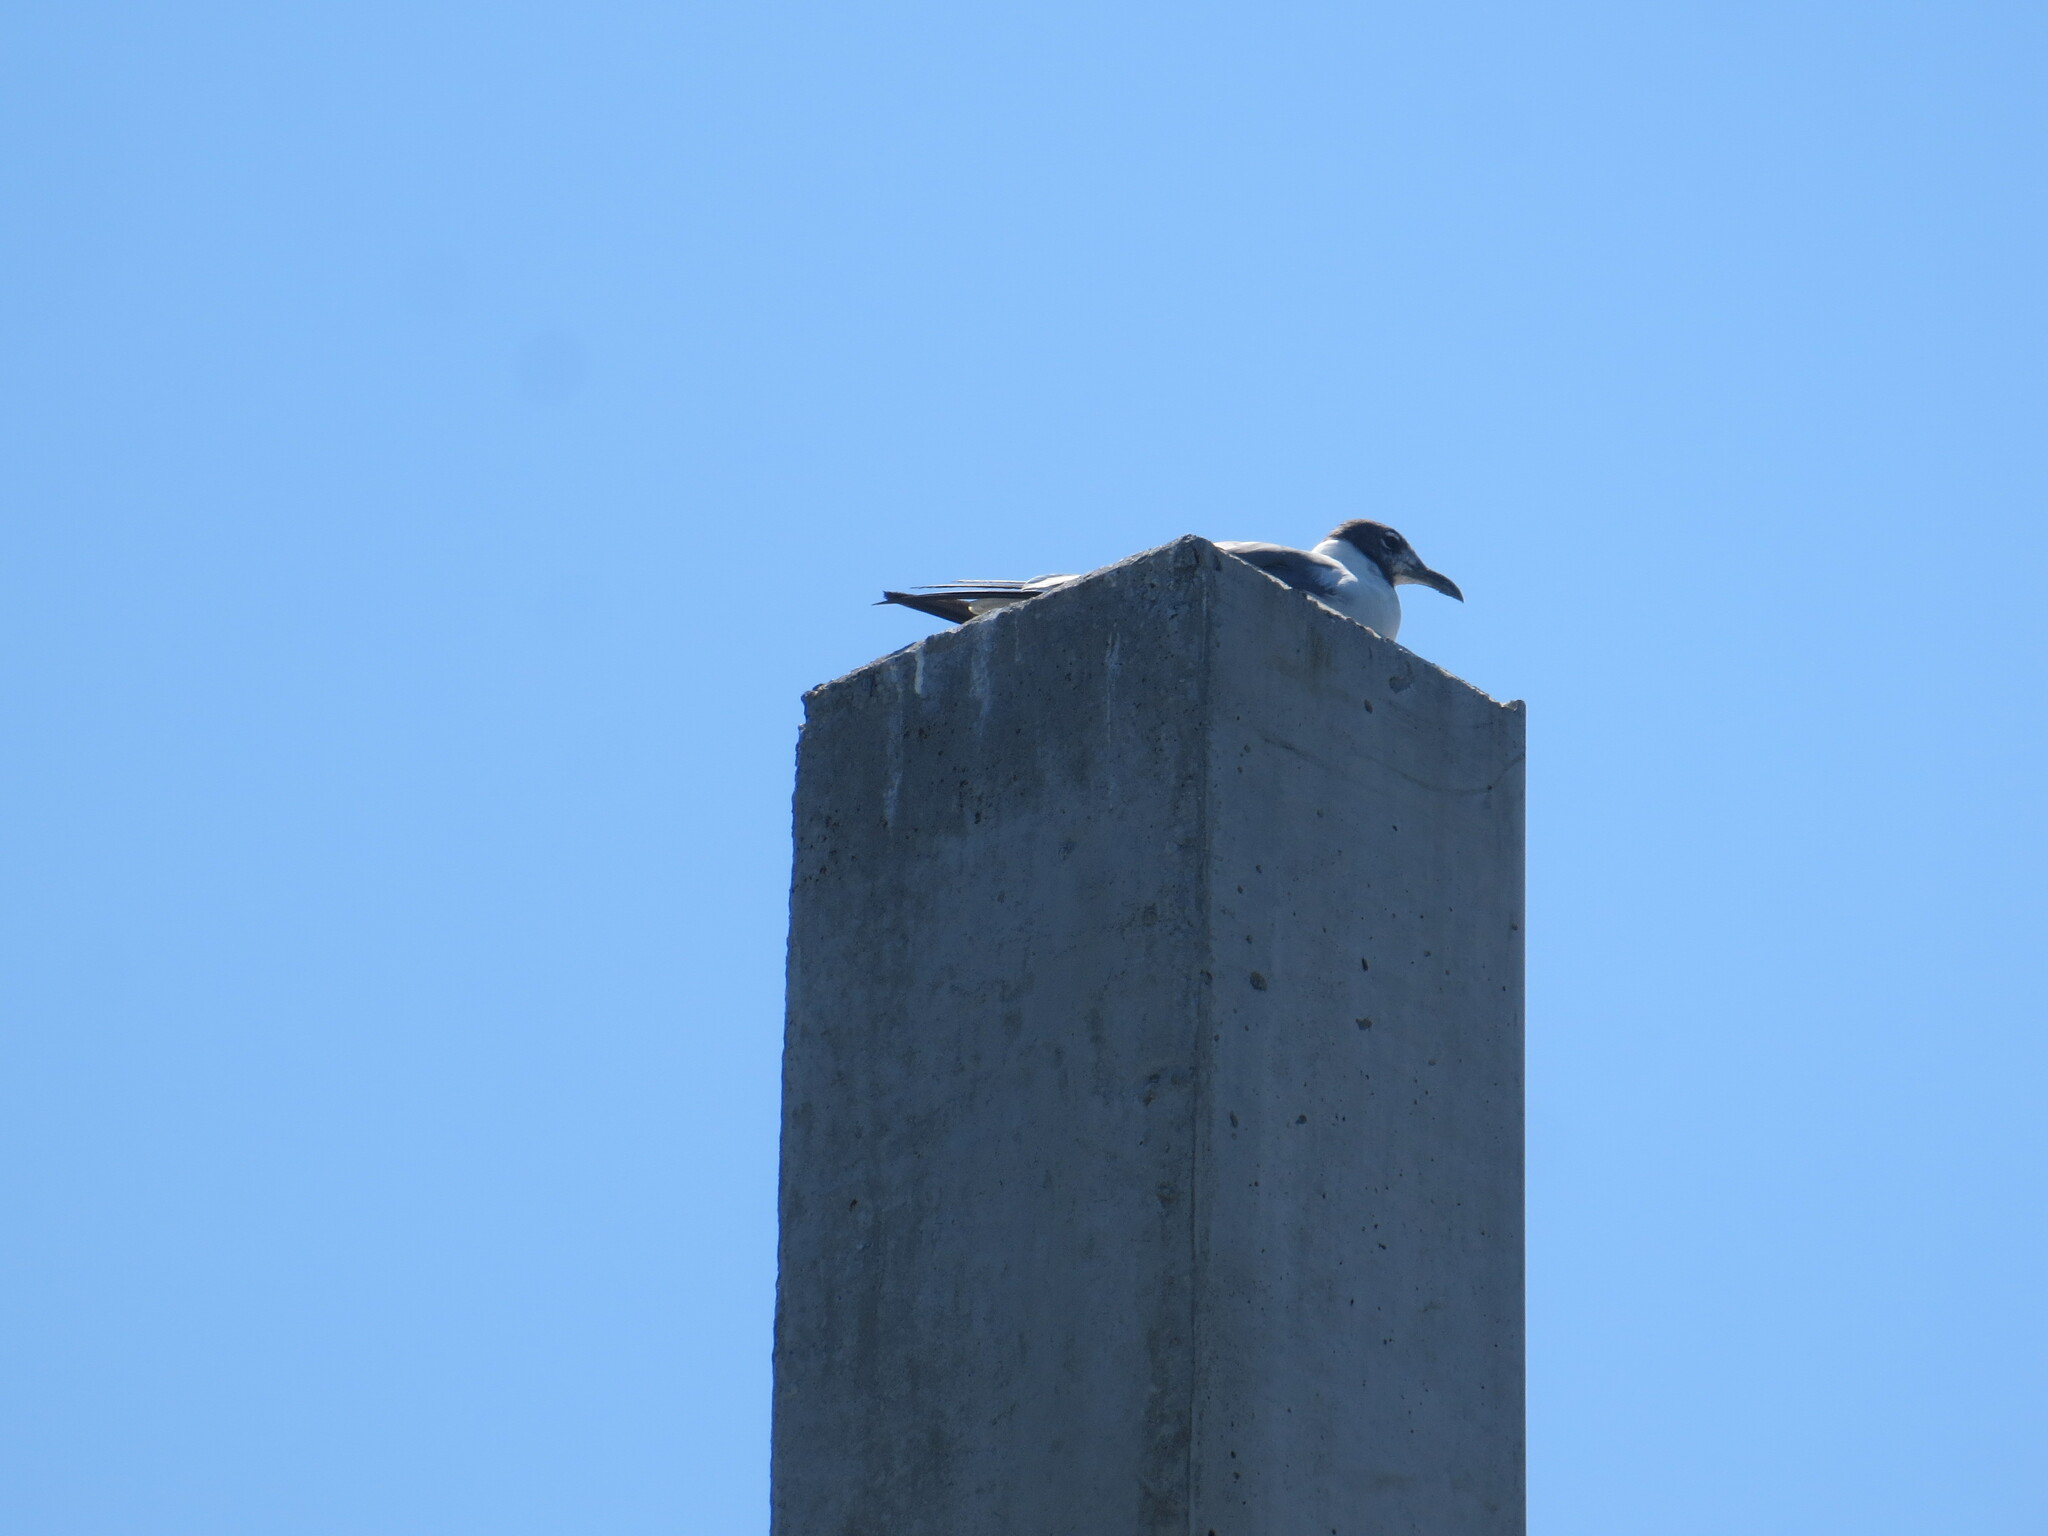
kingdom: Animalia
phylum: Chordata
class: Aves
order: Charadriiformes
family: Laridae
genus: Leucophaeus
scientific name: Leucophaeus atricilla
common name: Laughing gull
